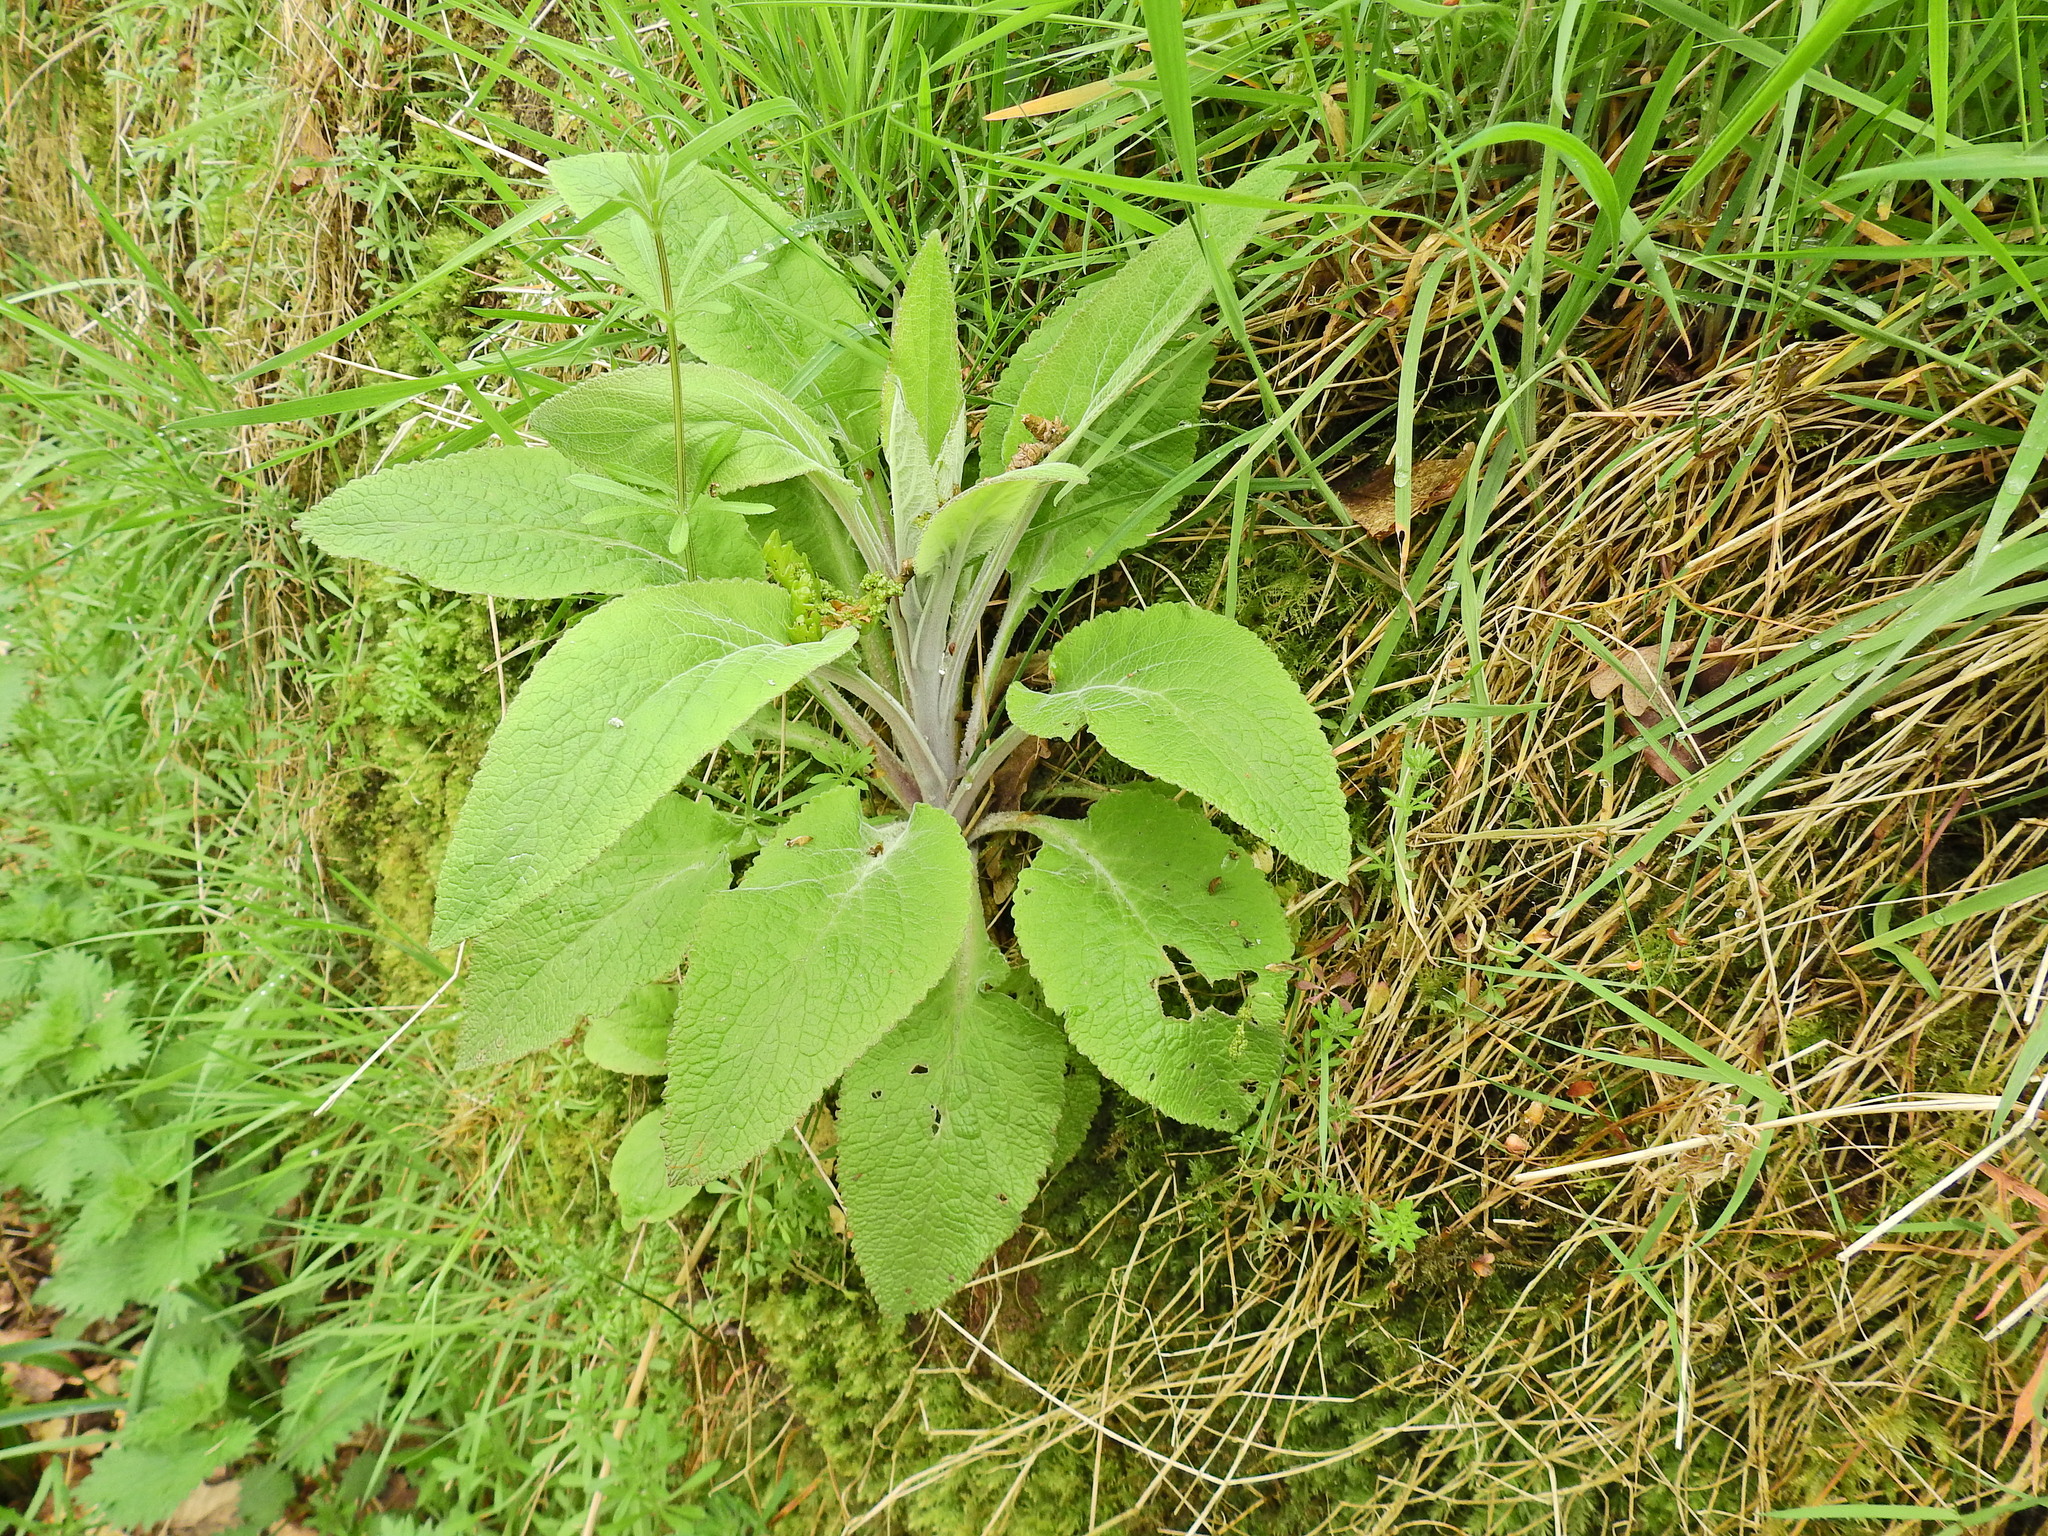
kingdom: Plantae
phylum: Tracheophyta
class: Magnoliopsida
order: Lamiales
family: Plantaginaceae
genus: Digitalis
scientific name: Digitalis purpurea
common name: Foxglove
